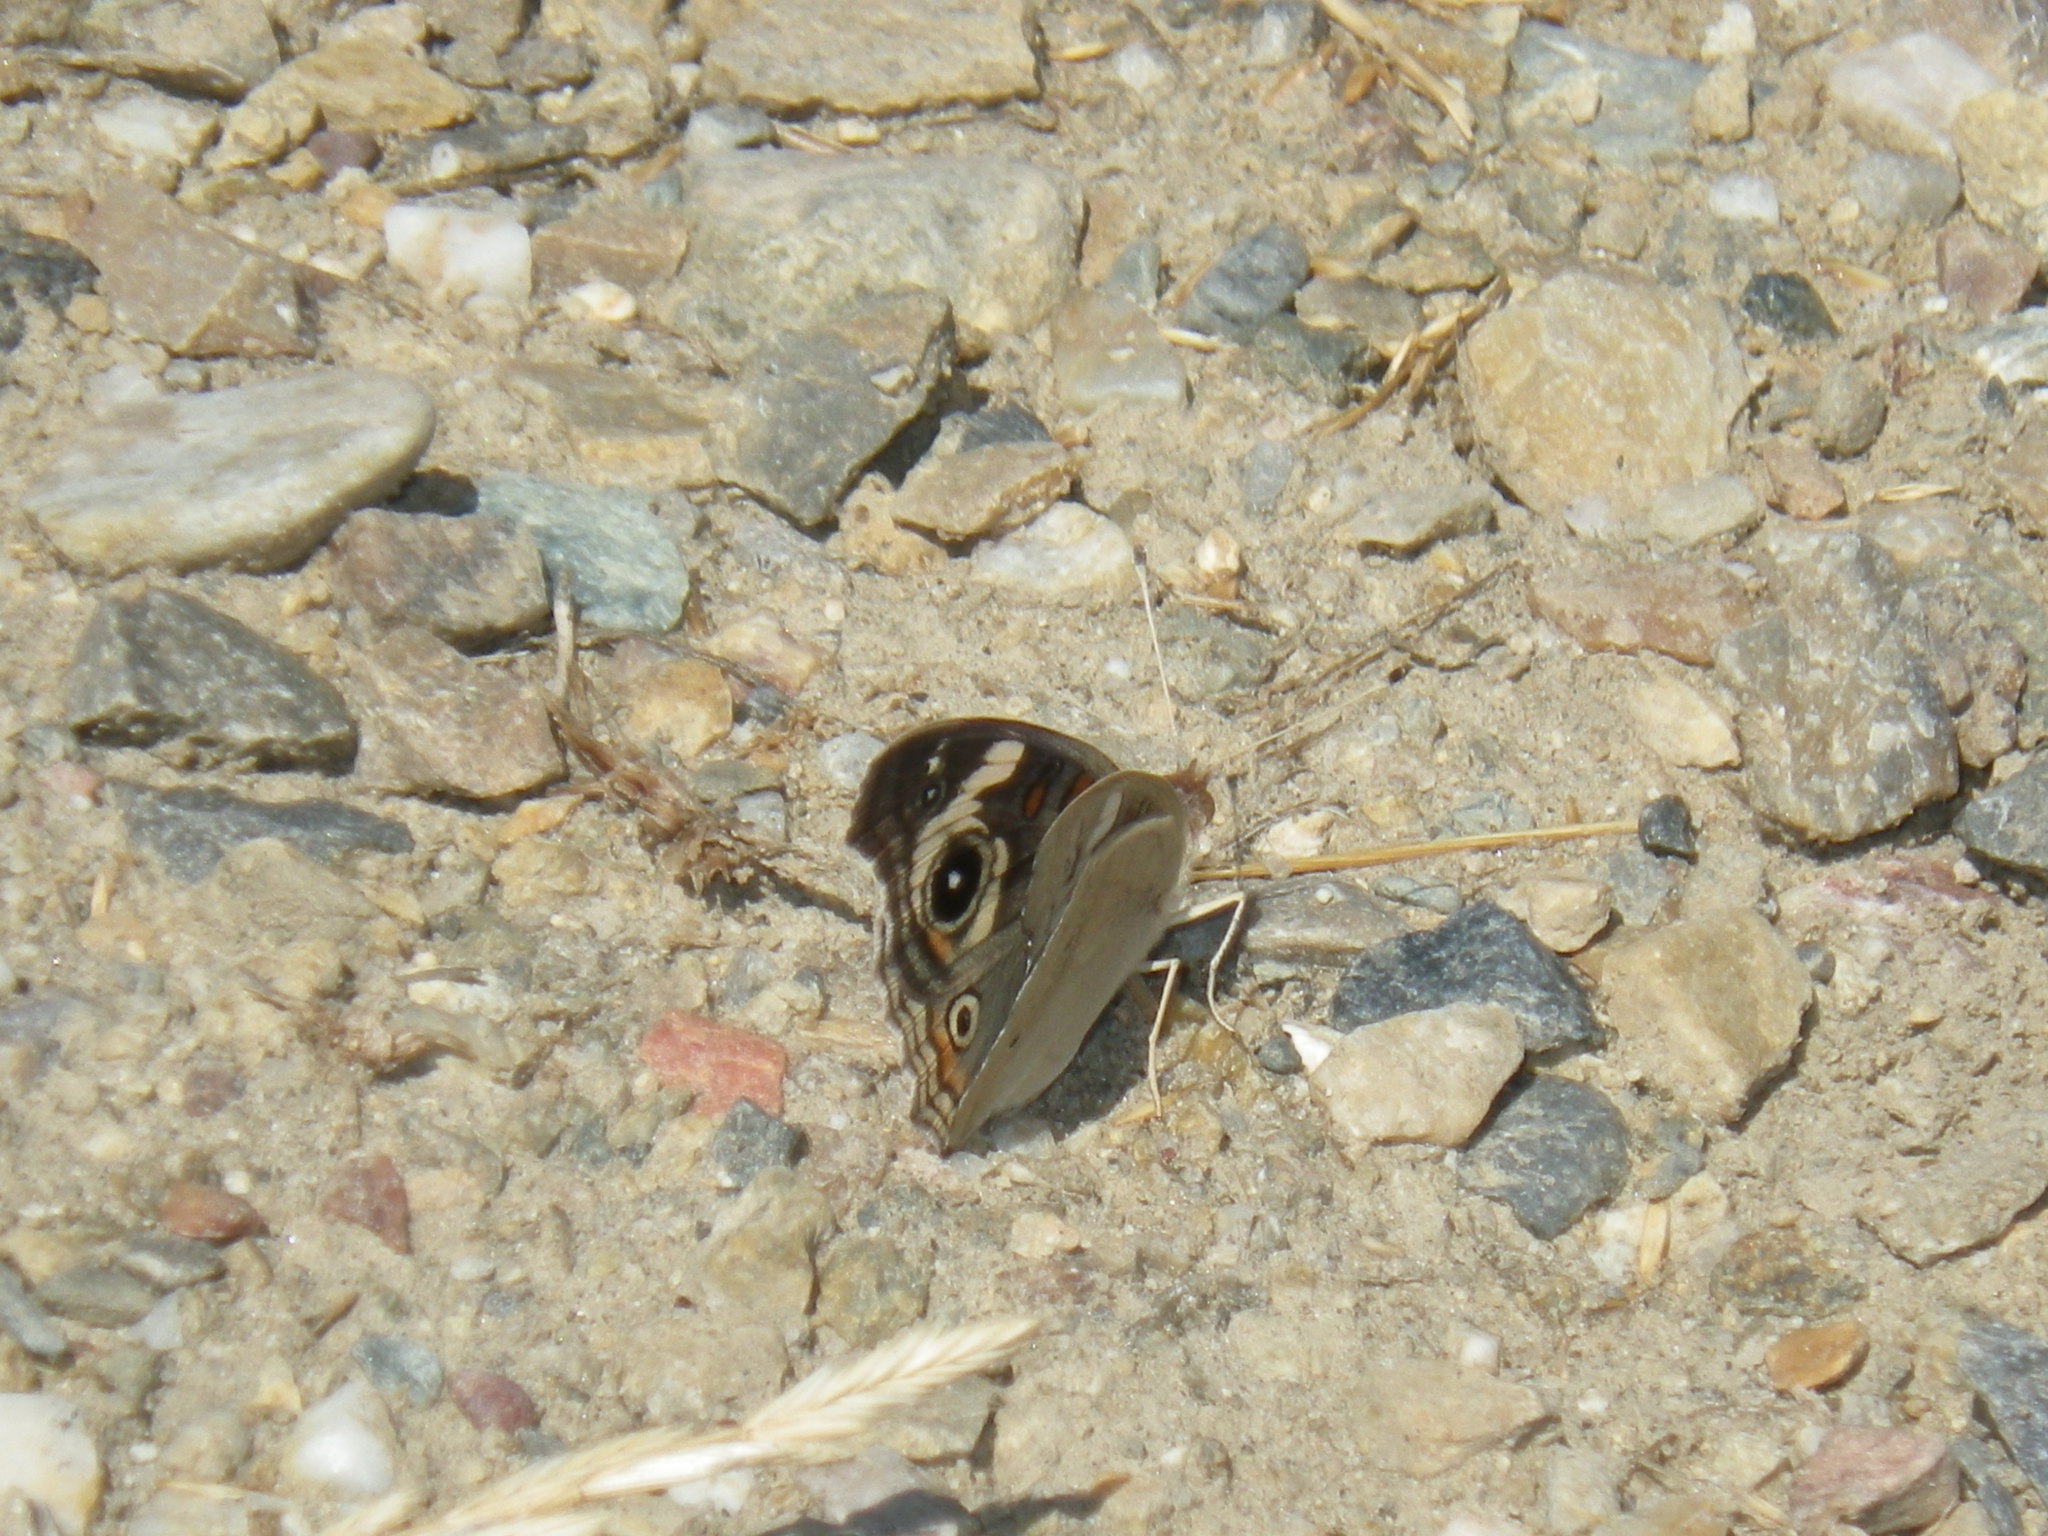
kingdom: Animalia
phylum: Arthropoda
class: Insecta
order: Lepidoptera
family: Nymphalidae
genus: Junonia
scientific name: Junonia grisea
